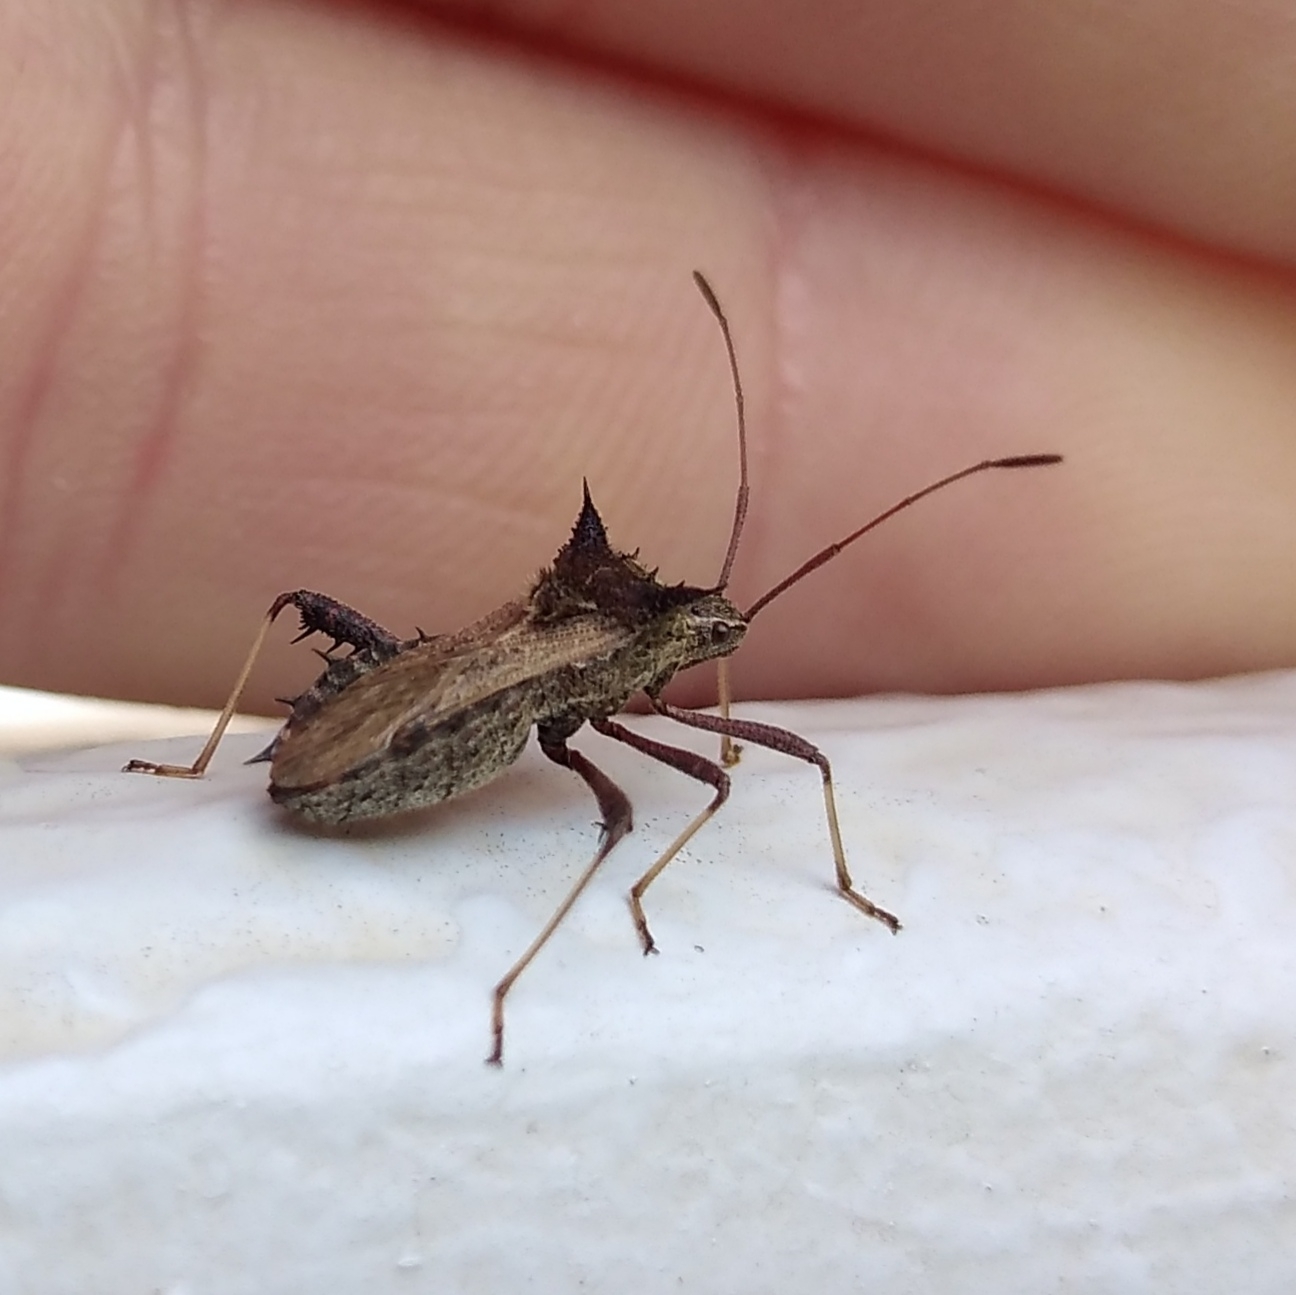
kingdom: Animalia
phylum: Arthropoda
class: Insecta
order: Hemiptera
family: Coreidae
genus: Clavigralla
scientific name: Clavigralla horrida
